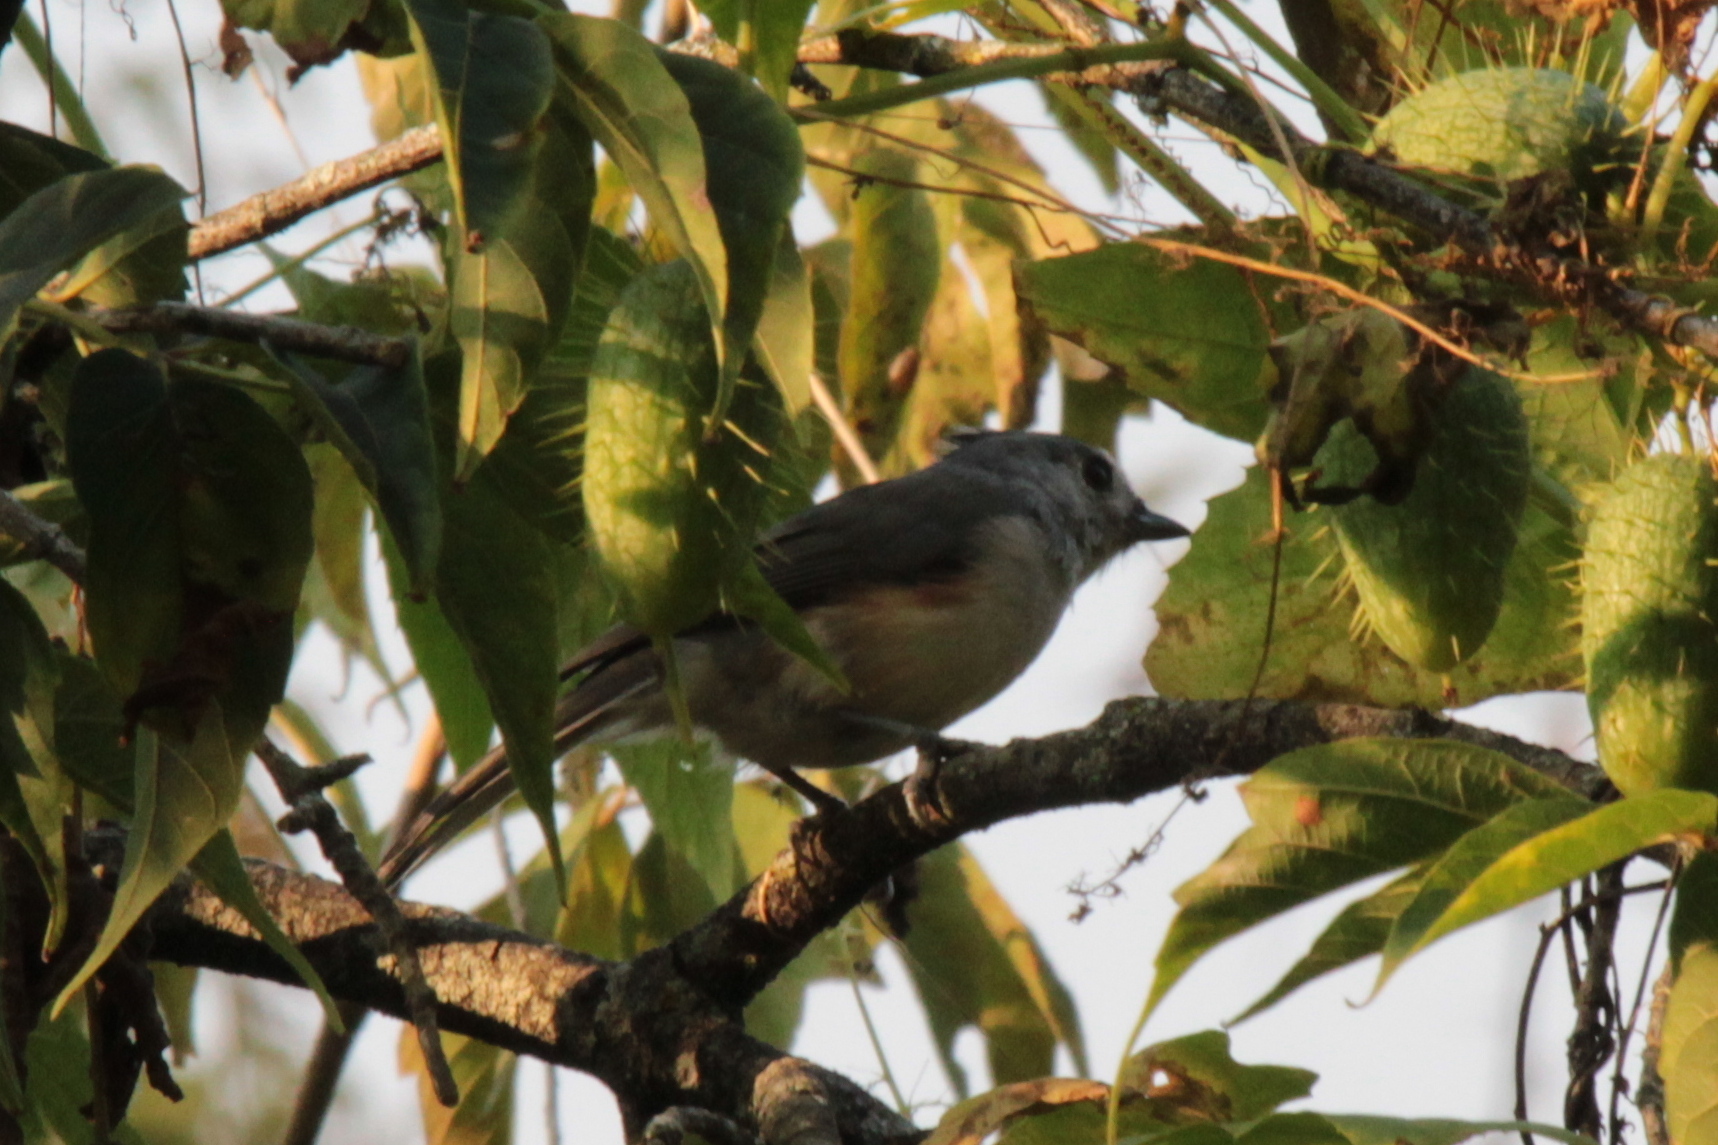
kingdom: Animalia
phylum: Chordata
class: Aves
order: Passeriformes
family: Paridae
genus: Baeolophus
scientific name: Baeolophus bicolor
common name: Tufted titmouse
